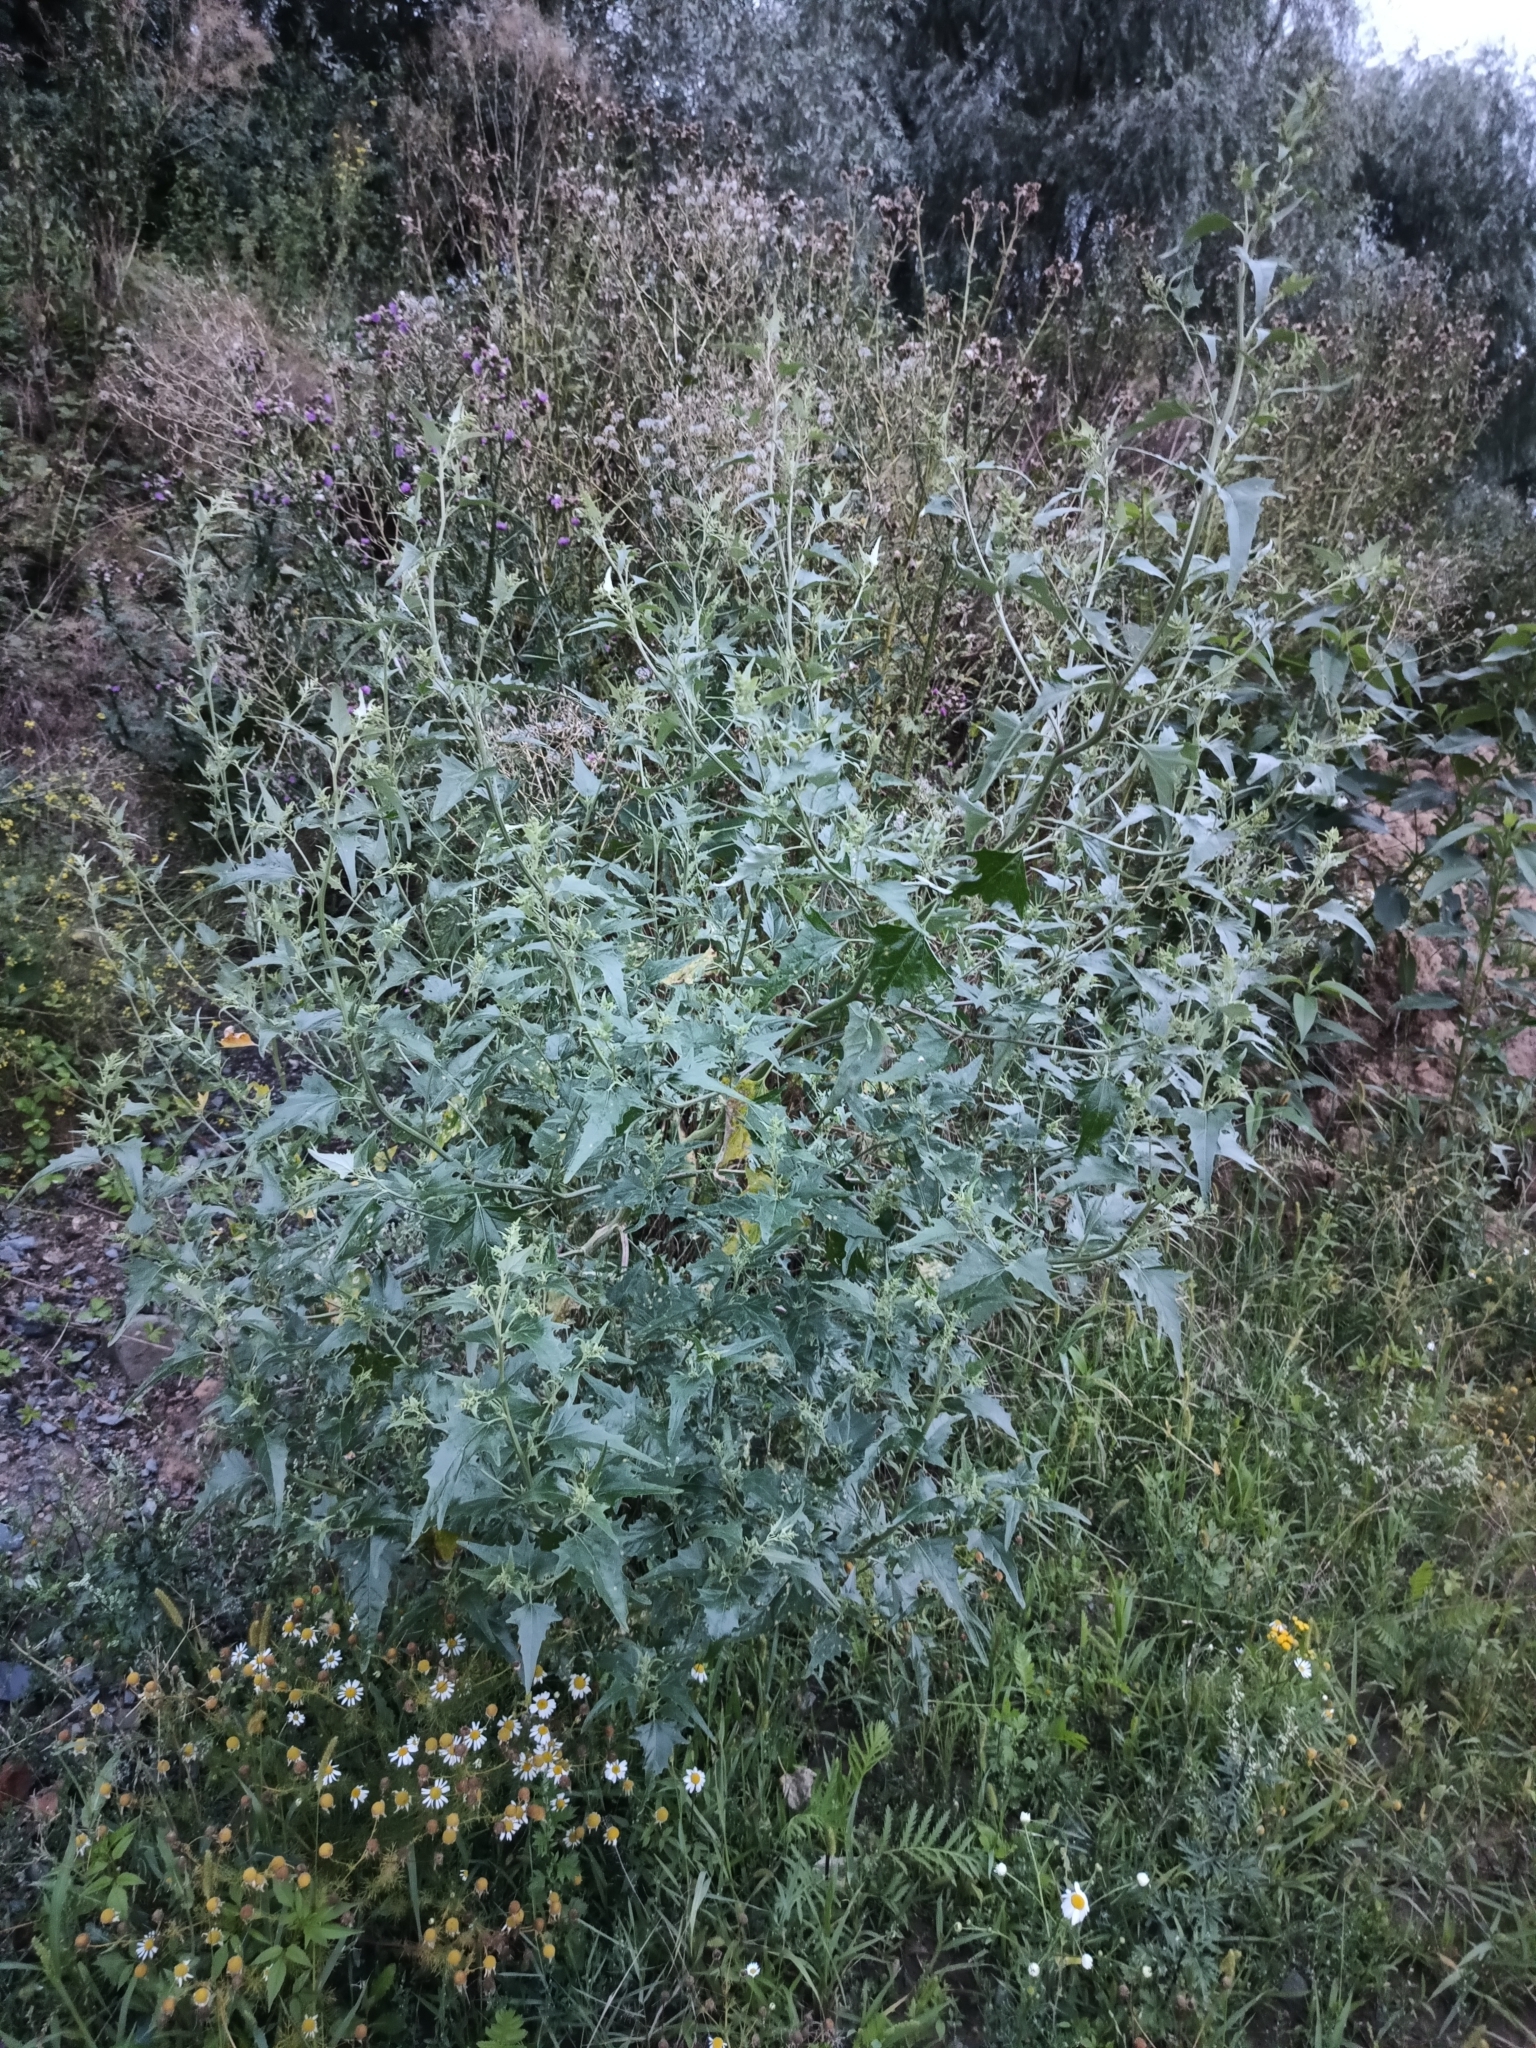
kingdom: Plantae
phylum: Tracheophyta
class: Magnoliopsida
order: Caryophyllales
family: Amaranthaceae
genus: Atriplex
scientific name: Atriplex sagittata
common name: Purple orache
